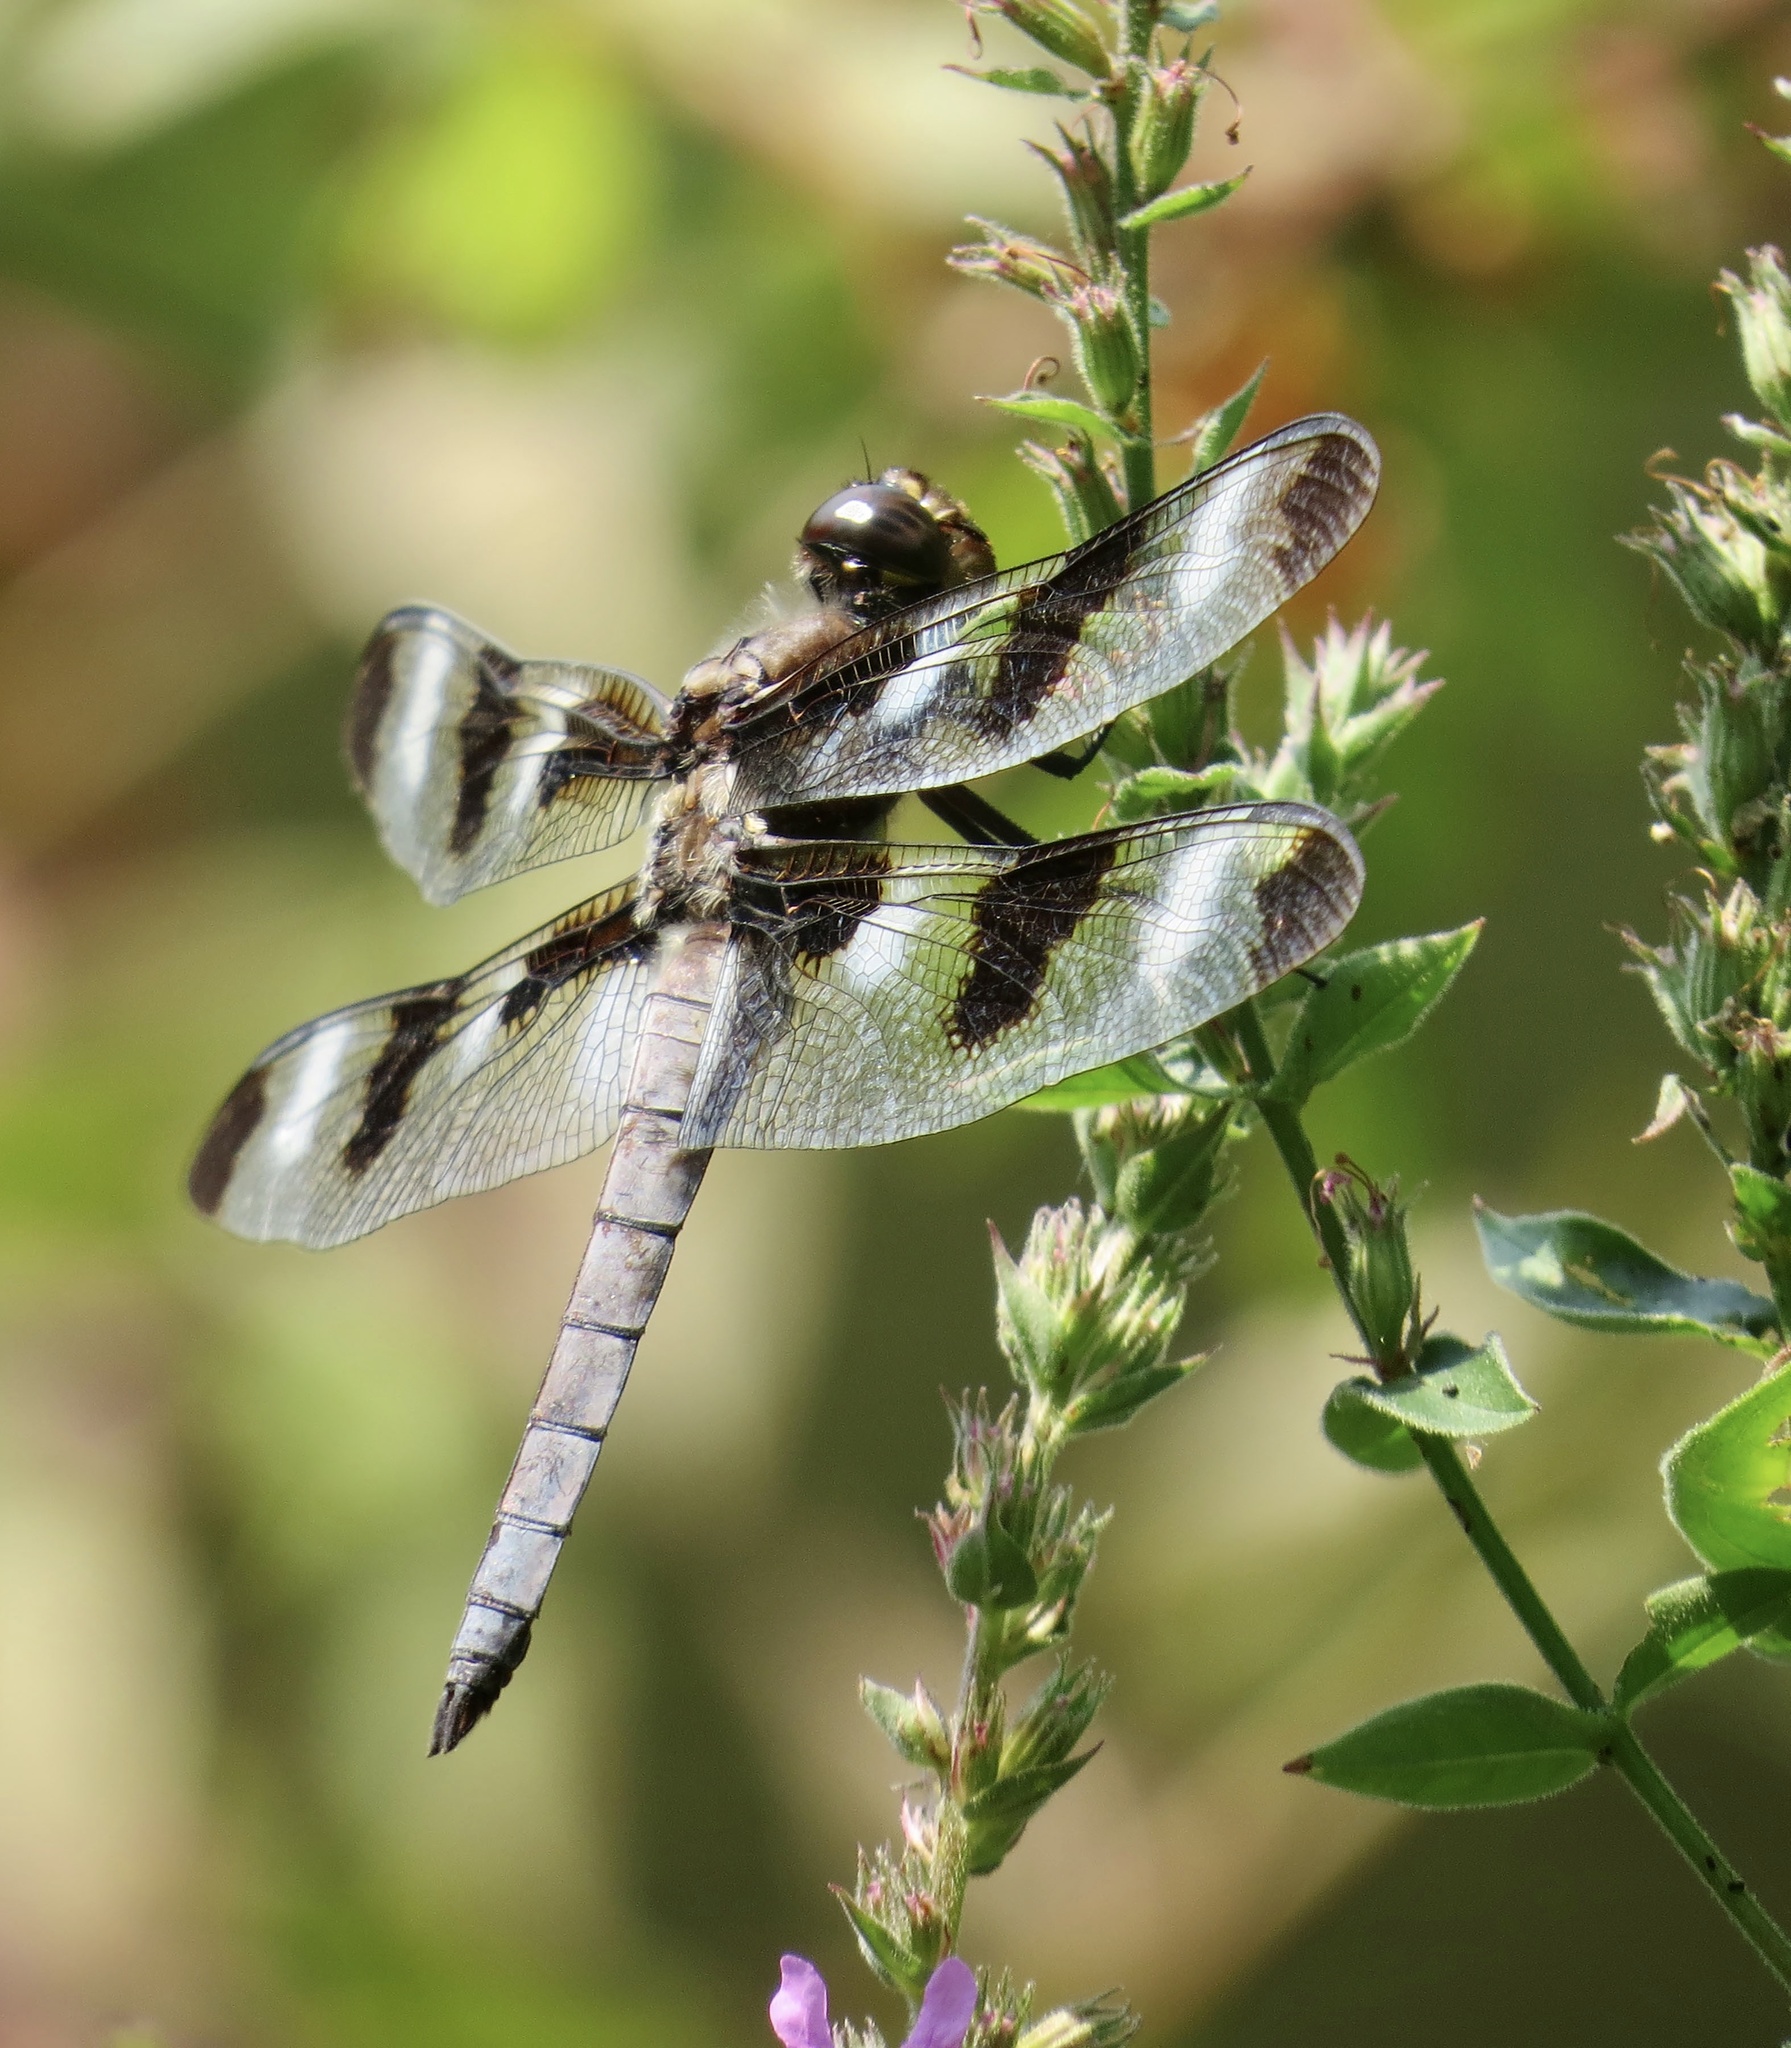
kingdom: Animalia
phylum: Arthropoda
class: Insecta
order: Odonata
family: Libellulidae
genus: Libellula
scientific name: Libellula pulchella
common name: Twelve-spotted skimmer
